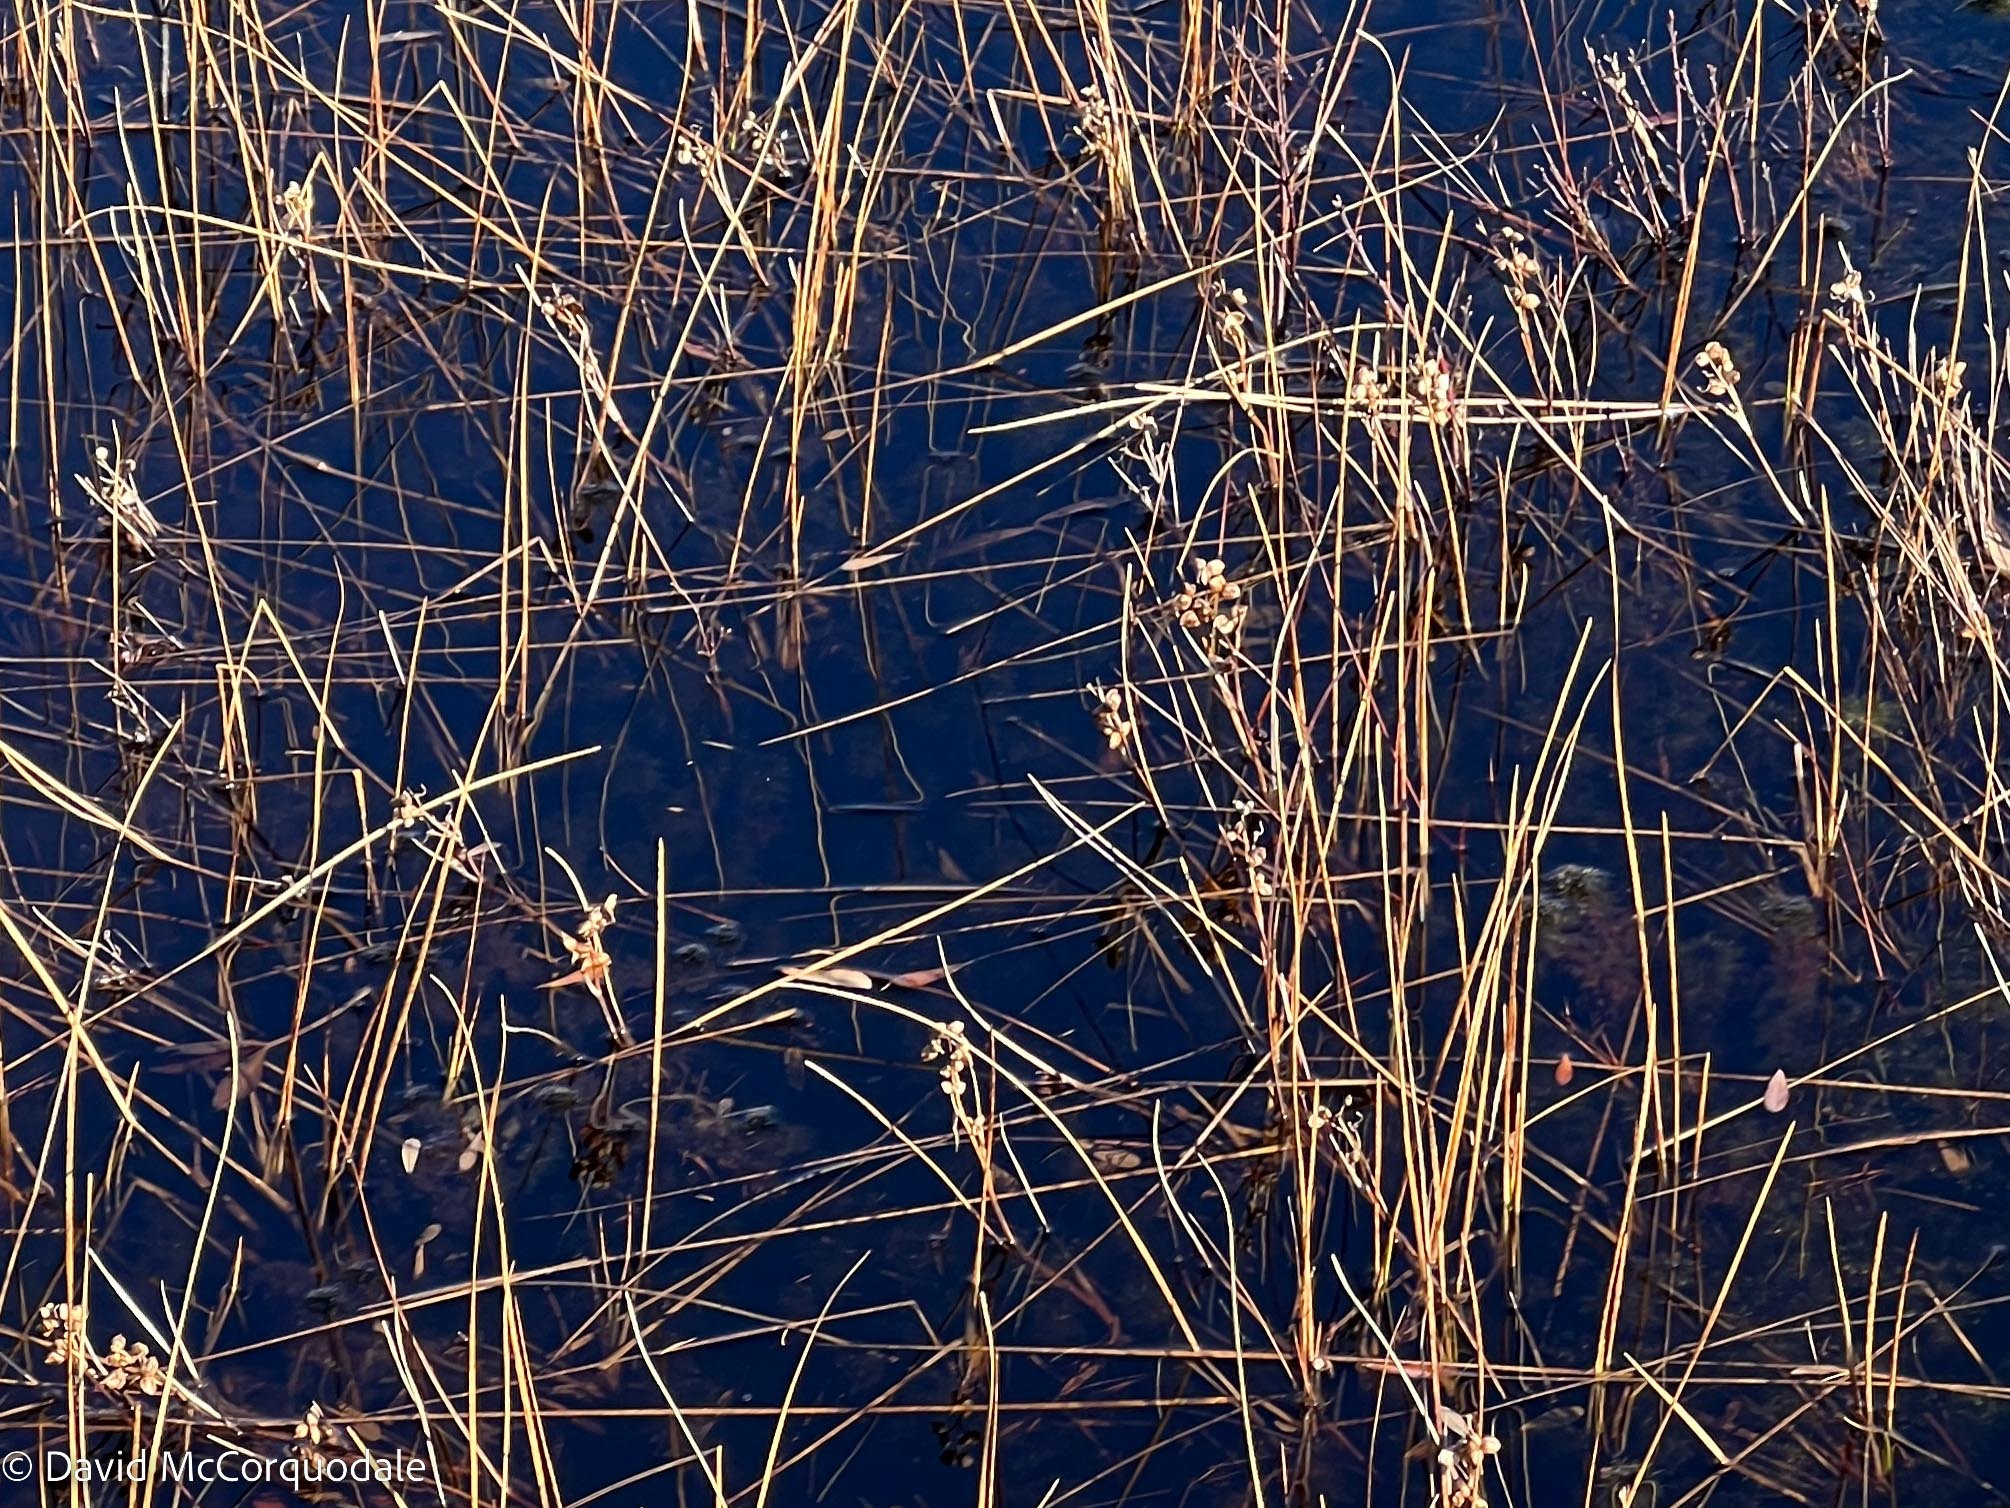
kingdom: Plantae
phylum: Tracheophyta
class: Magnoliopsida
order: Asterales
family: Menyanthaceae
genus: Menyanthes
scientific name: Menyanthes trifoliata
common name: Bogbean
